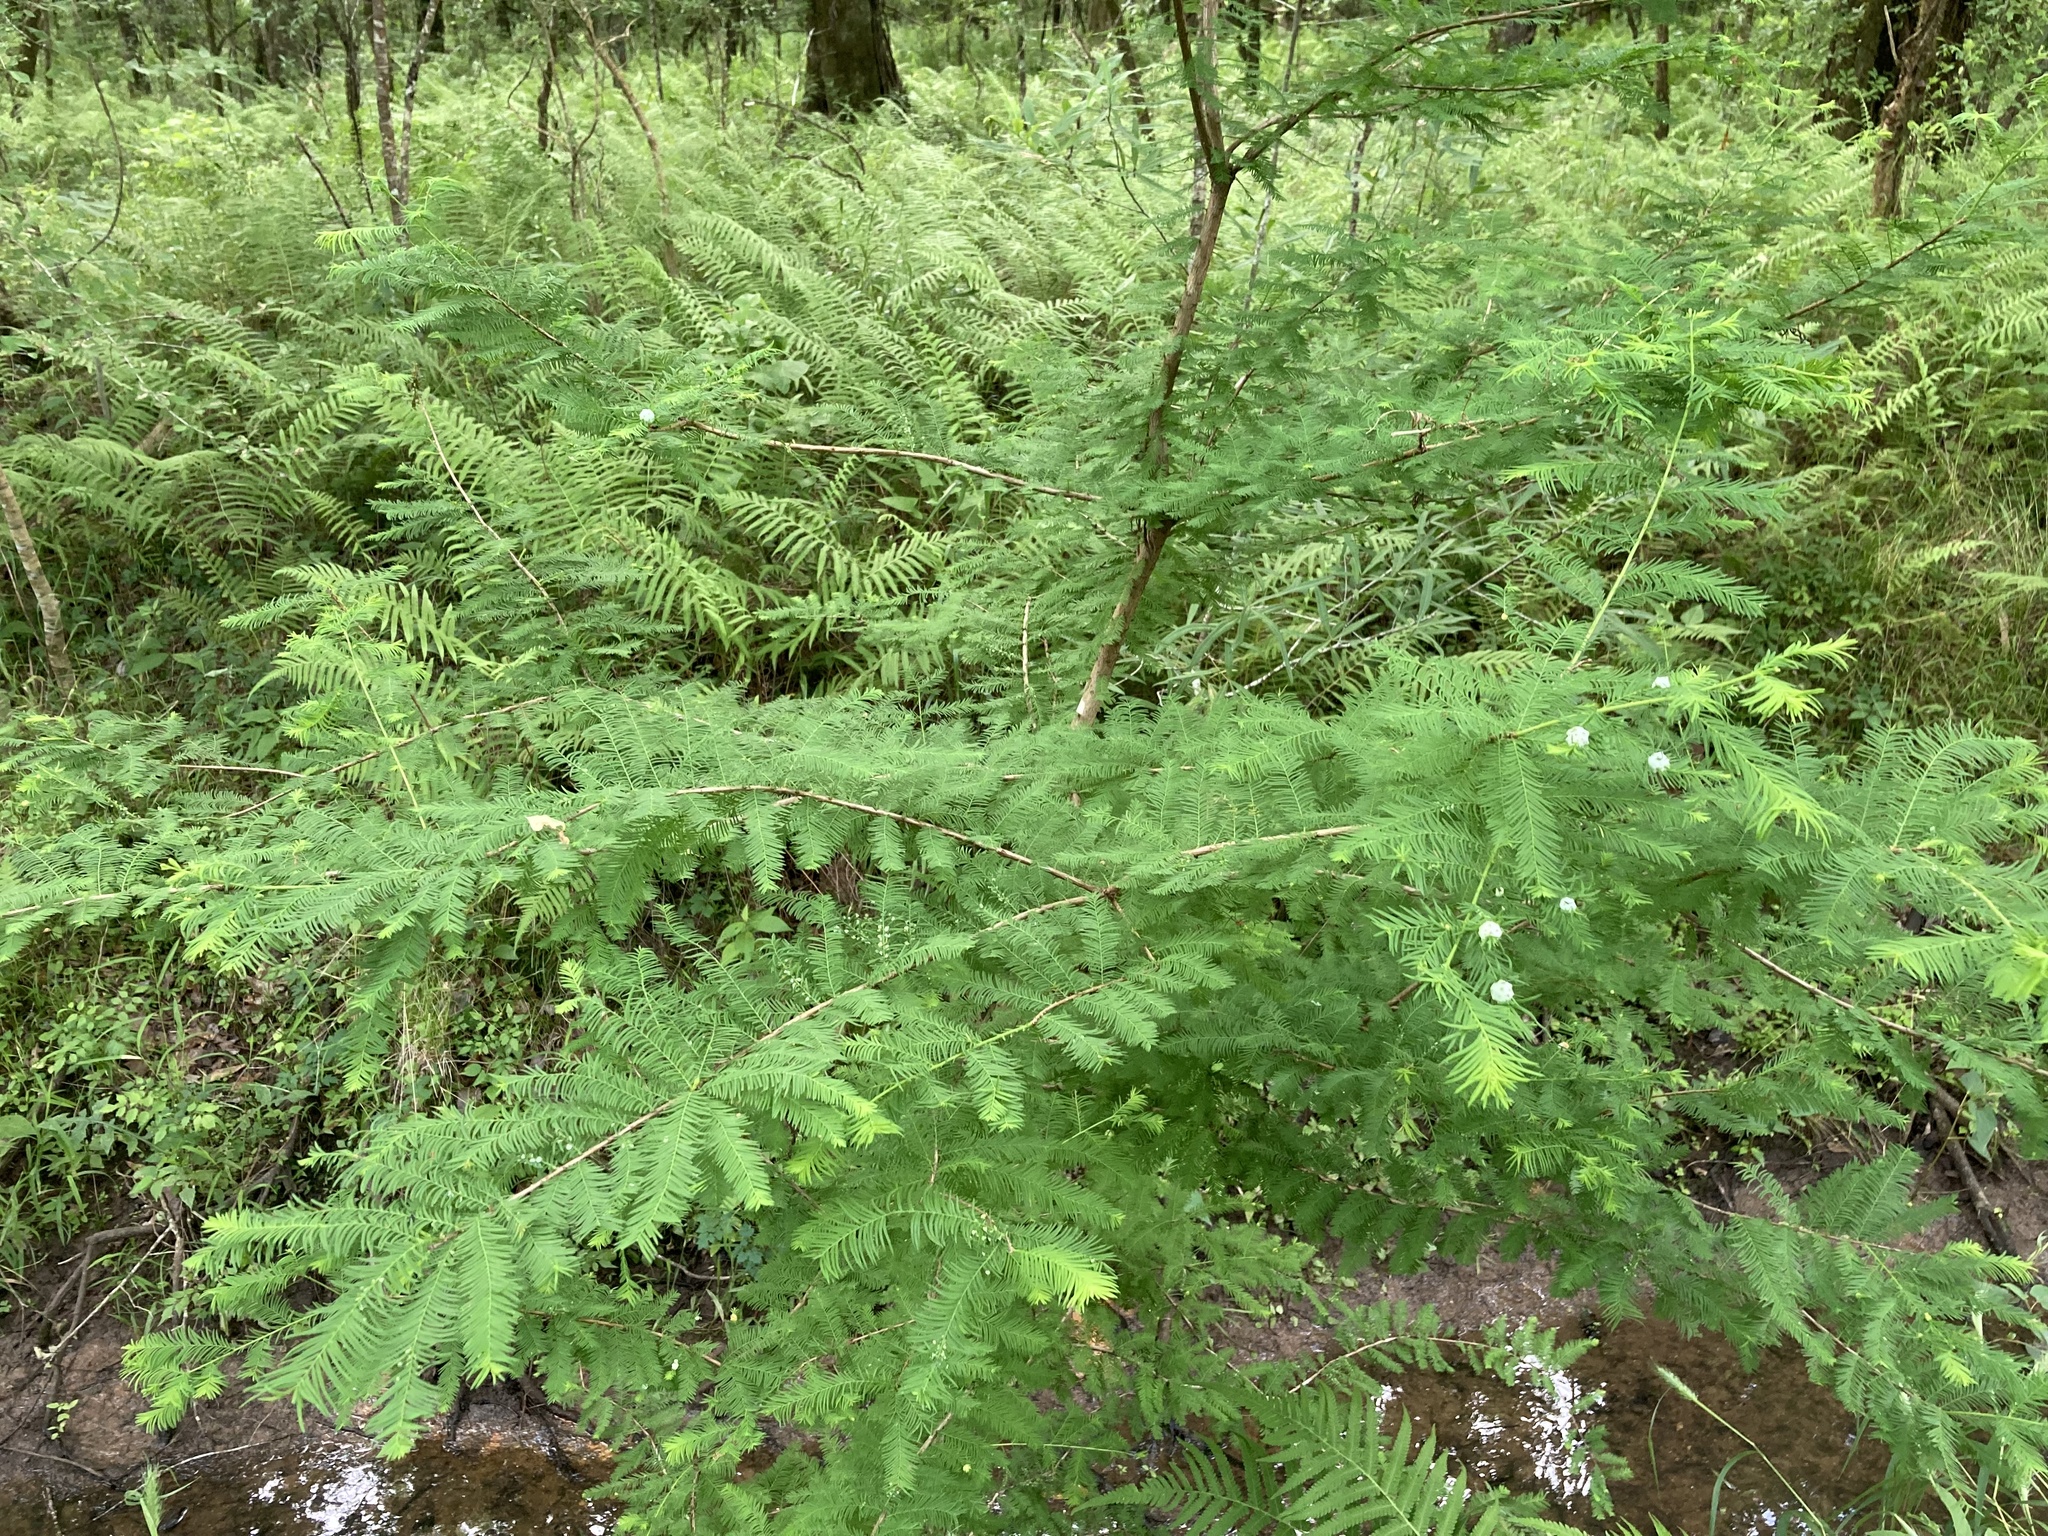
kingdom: Plantae
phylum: Tracheophyta
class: Pinopsida
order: Pinales
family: Cupressaceae
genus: Taxodium
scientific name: Taxodium distichum
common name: Bald cypress
